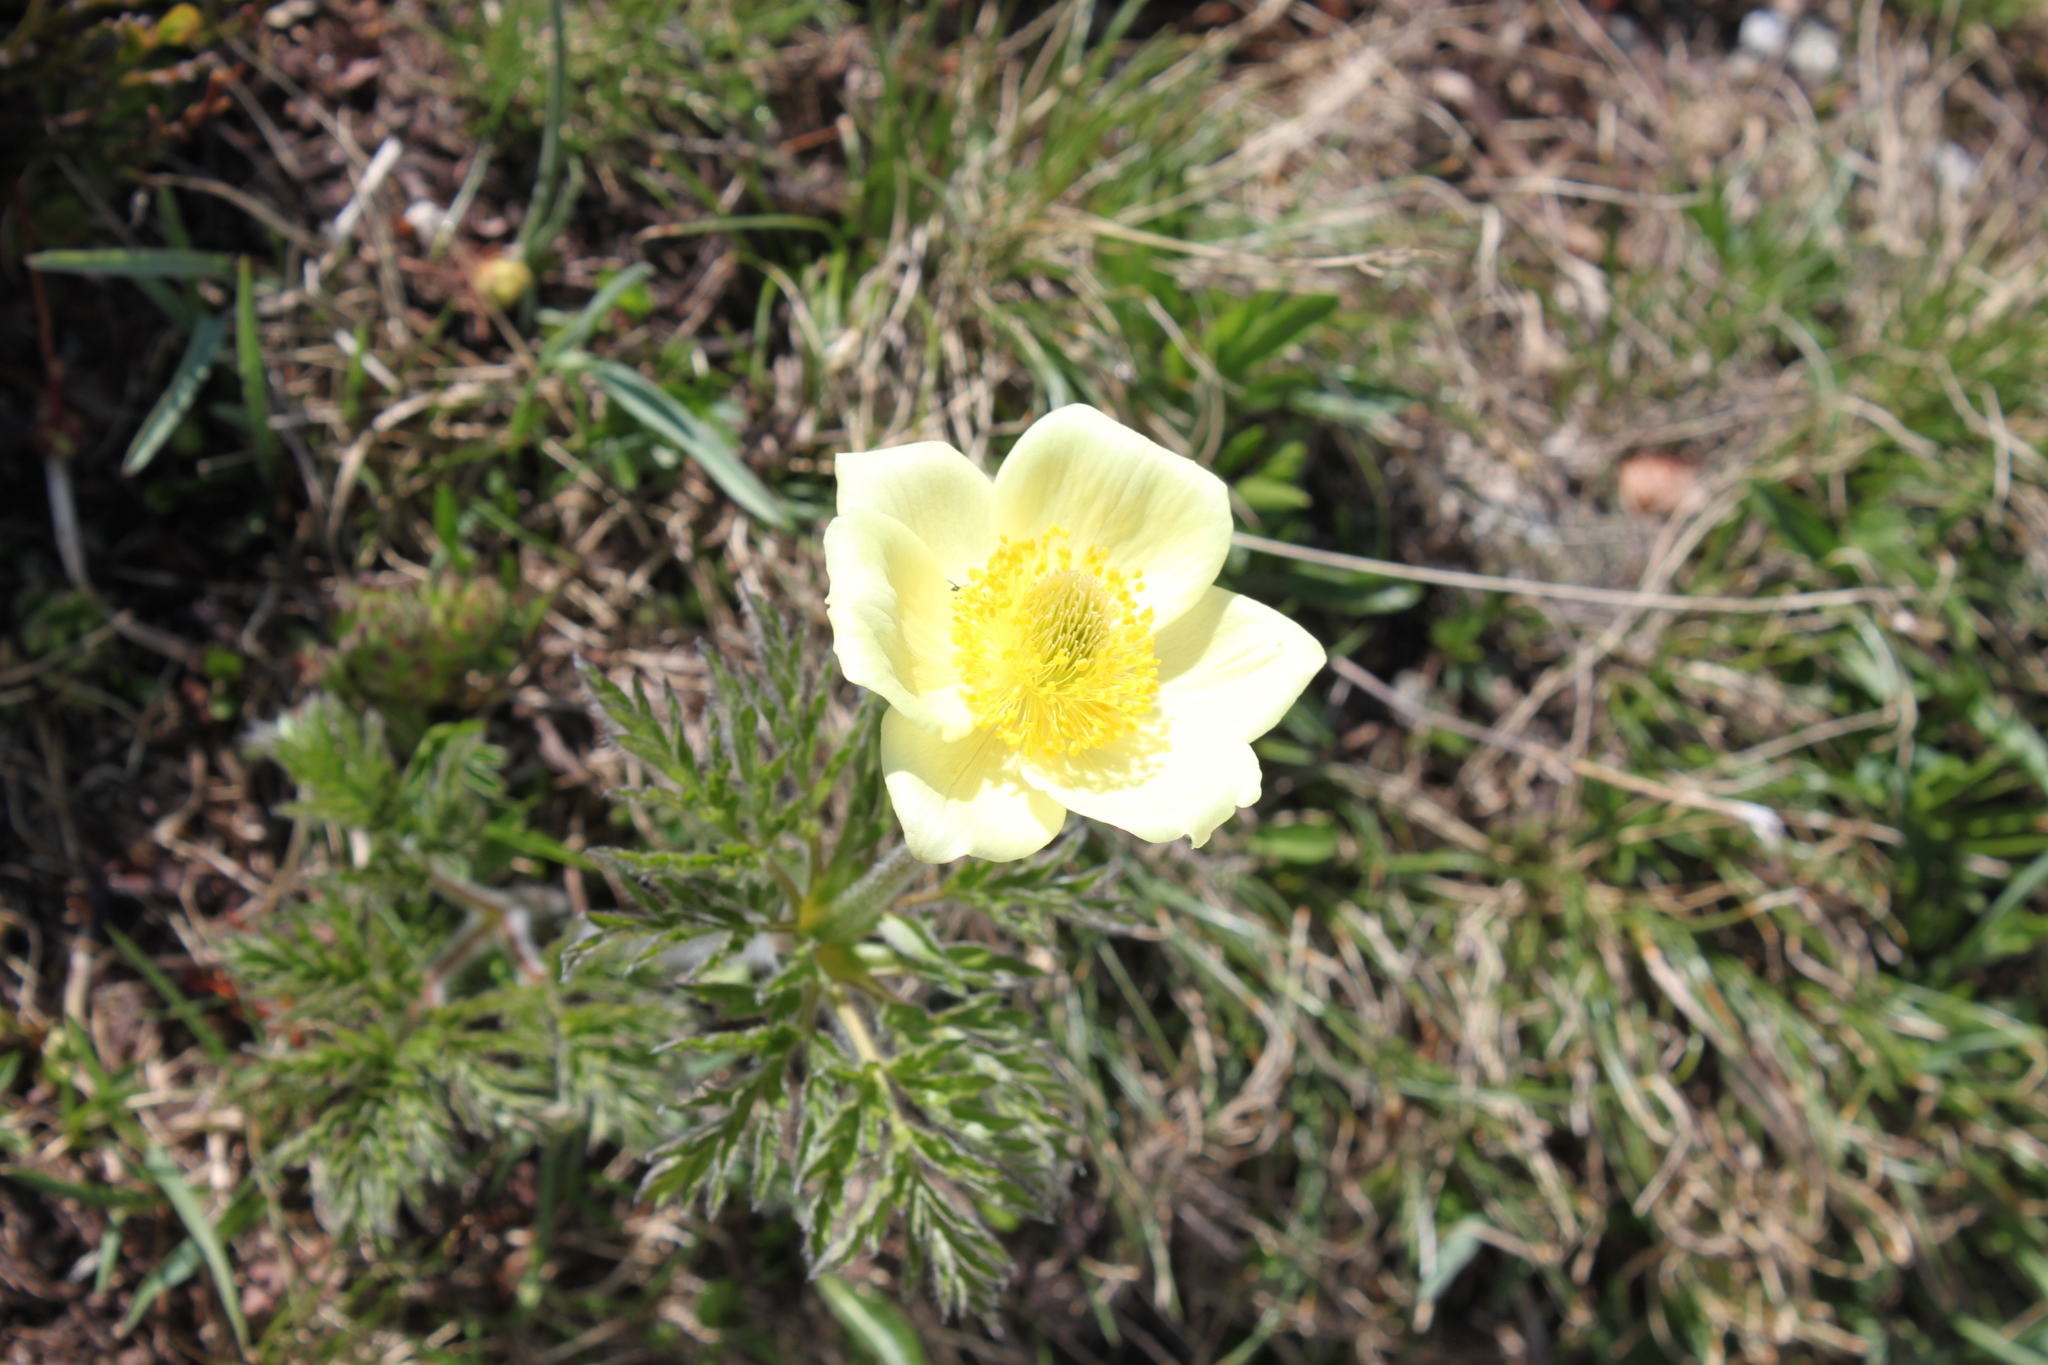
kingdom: Plantae
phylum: Tracheophyta
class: Magnoliopsida
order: Ranunculales
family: Ranunculaceae
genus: Pulsatilla
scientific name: Pulsatilla alpina
